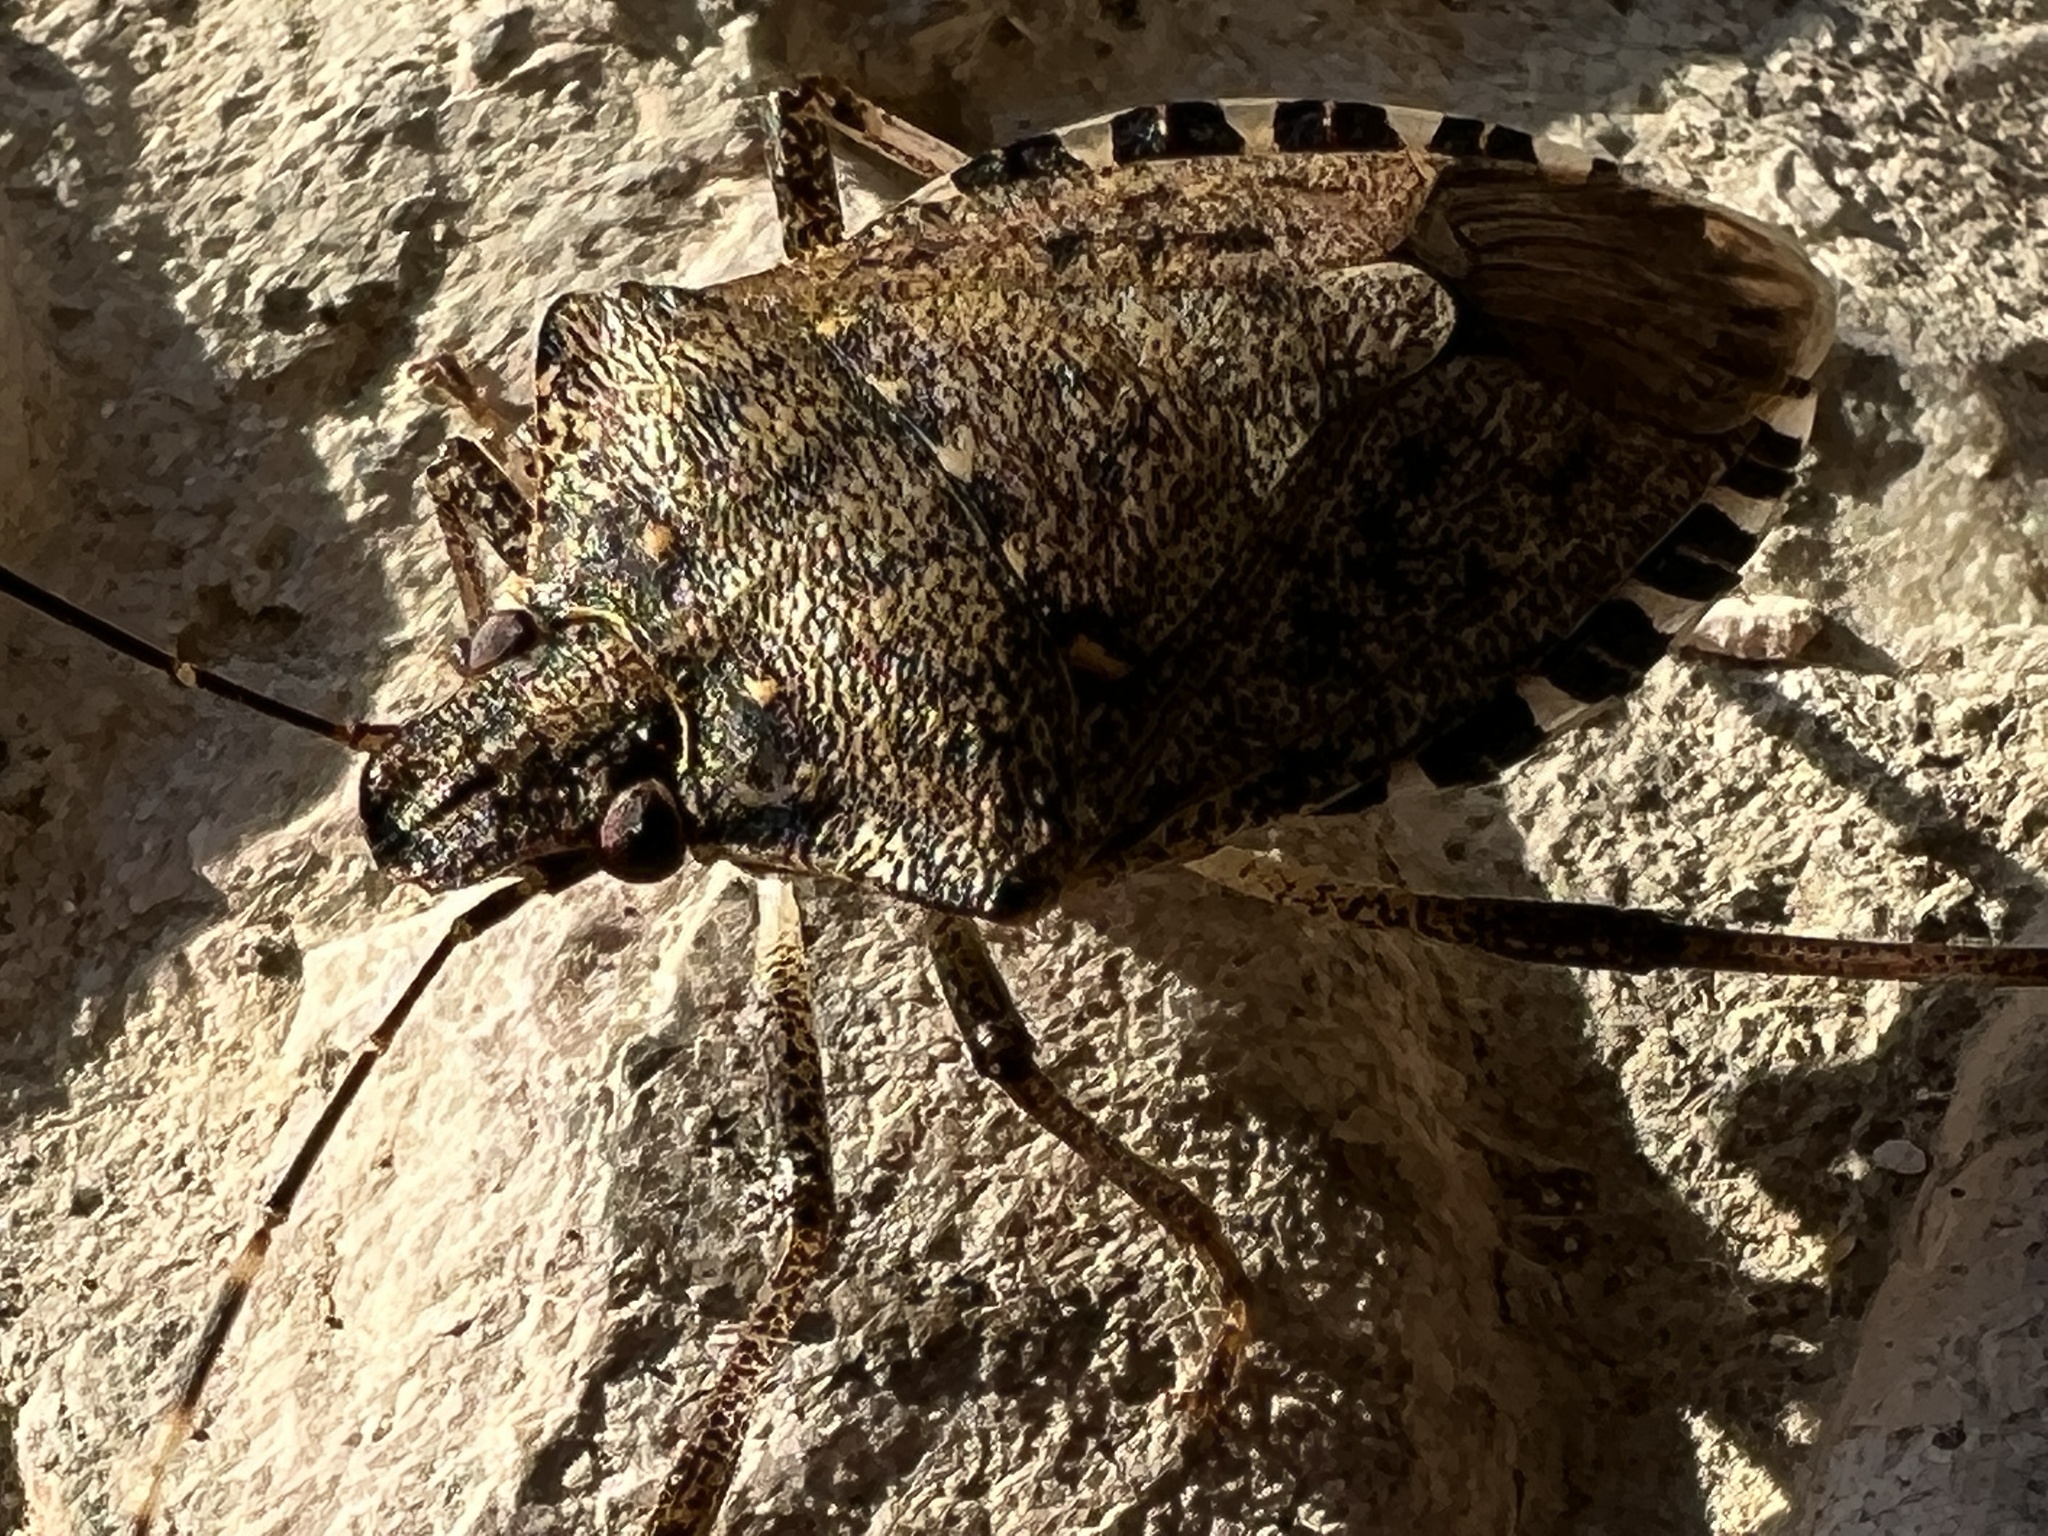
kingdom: Animalia
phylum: Arthropoda
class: Insecta
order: Hemiptera
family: Pentatomidae
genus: Halyomorpha
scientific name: Halyomorpha halys
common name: Brown marmorated stink bug
